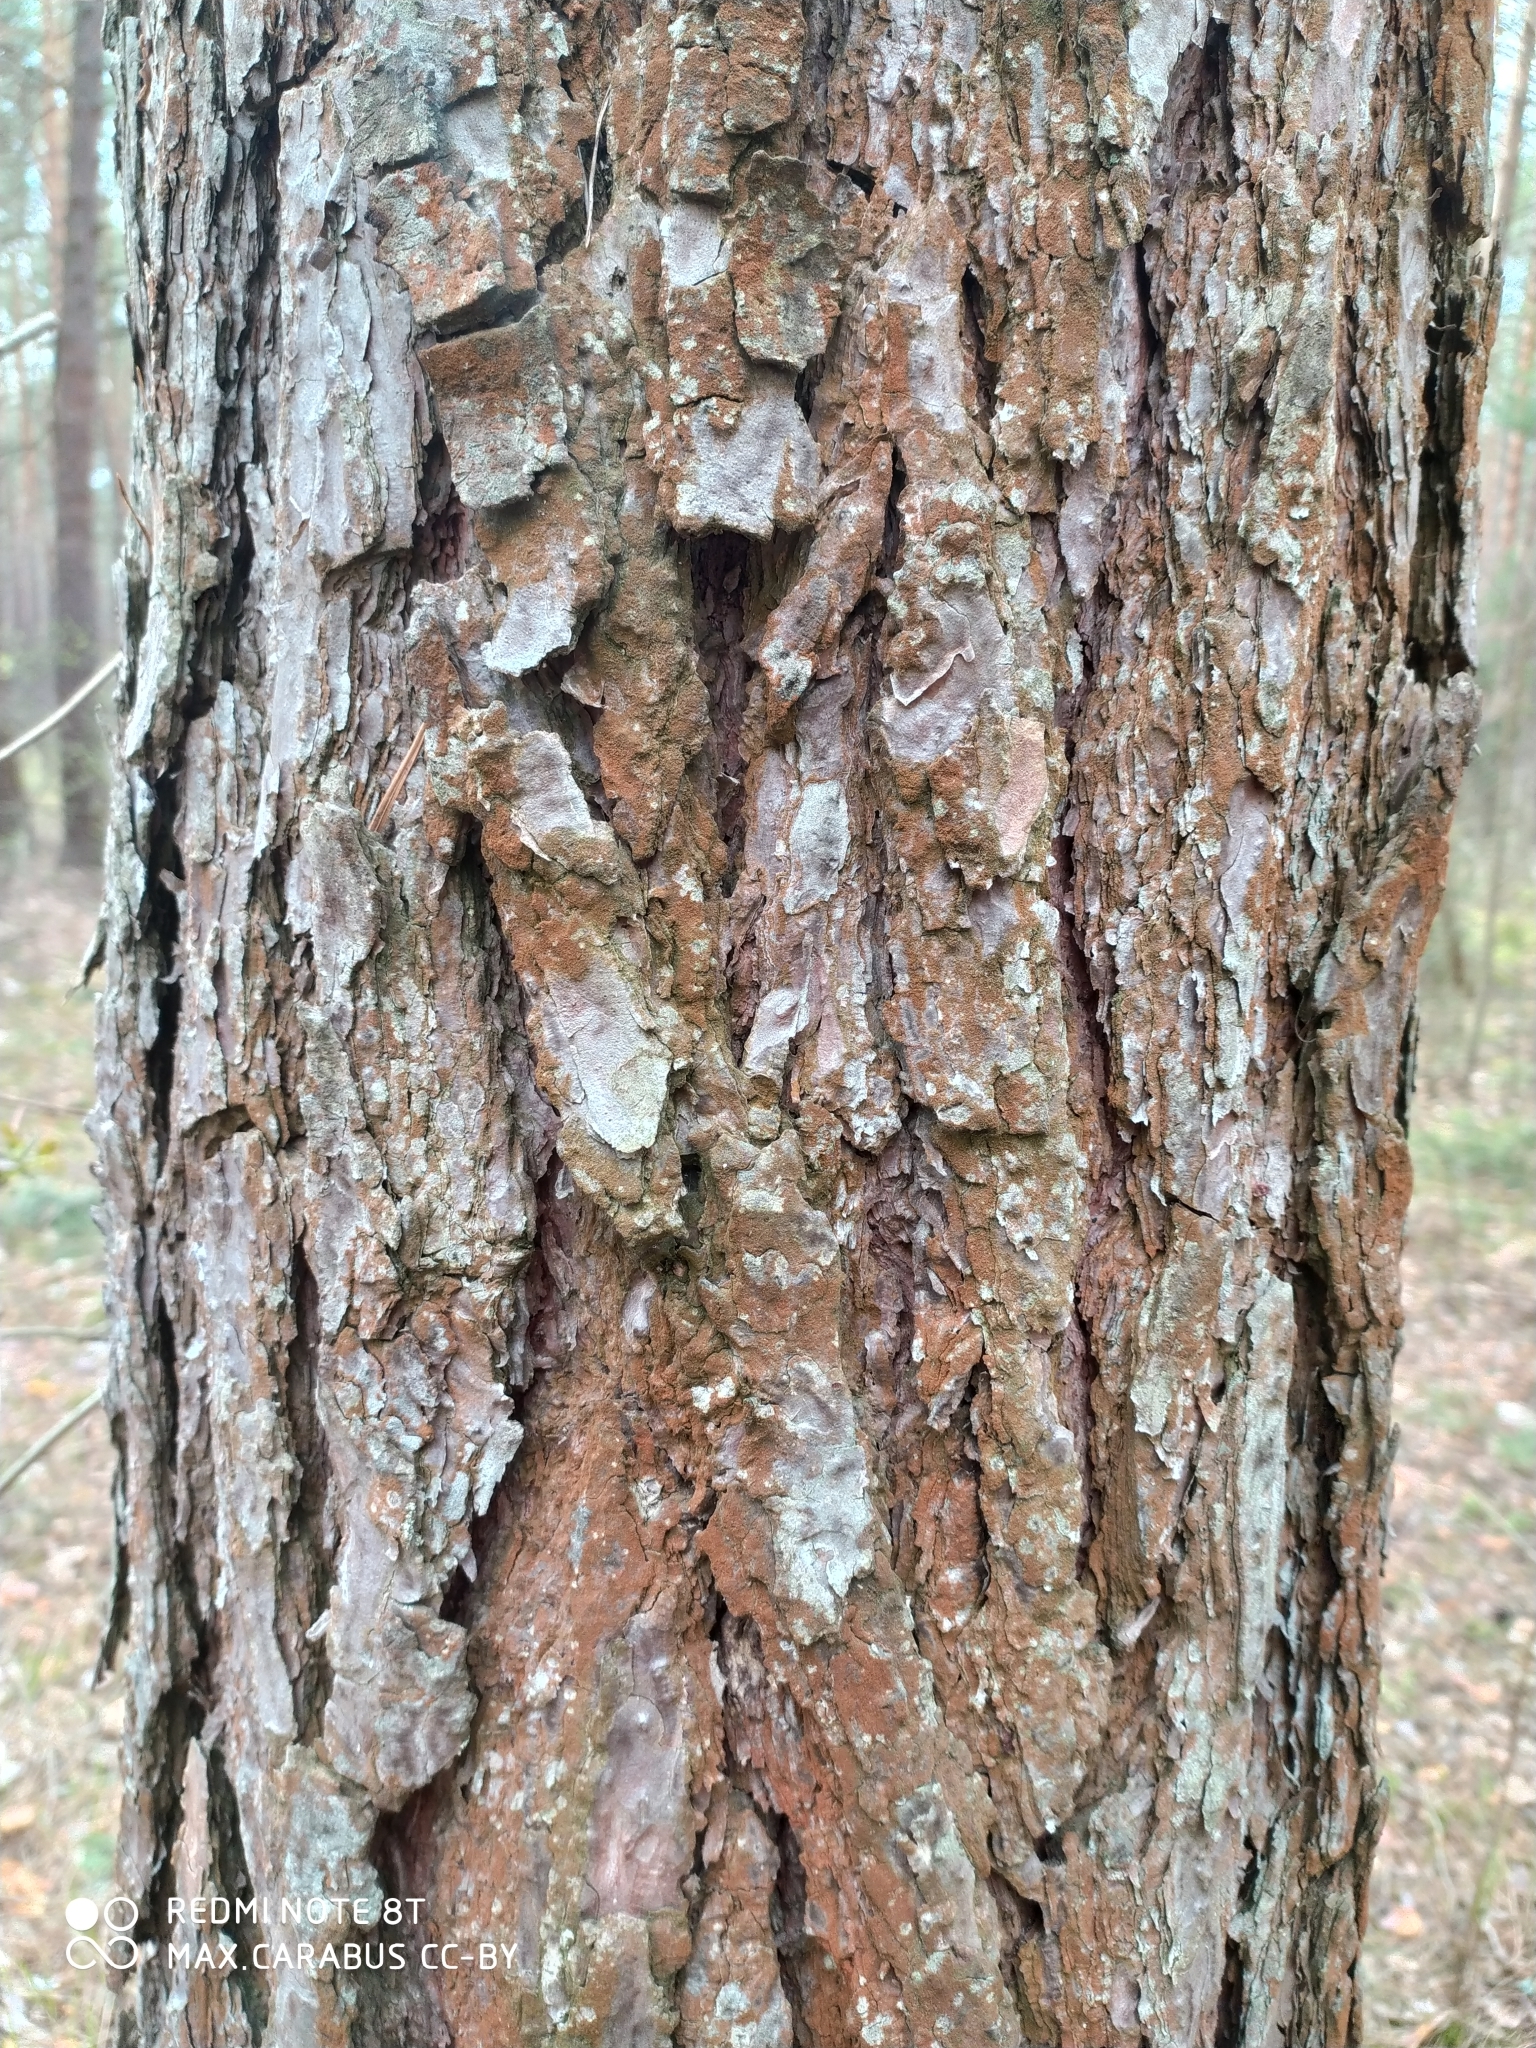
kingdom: Plantae
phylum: Tracheophyta
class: Pinopsida
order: Pinales
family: Pinaceae
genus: Pinus
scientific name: Pinus sylvestris
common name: Scots pine
